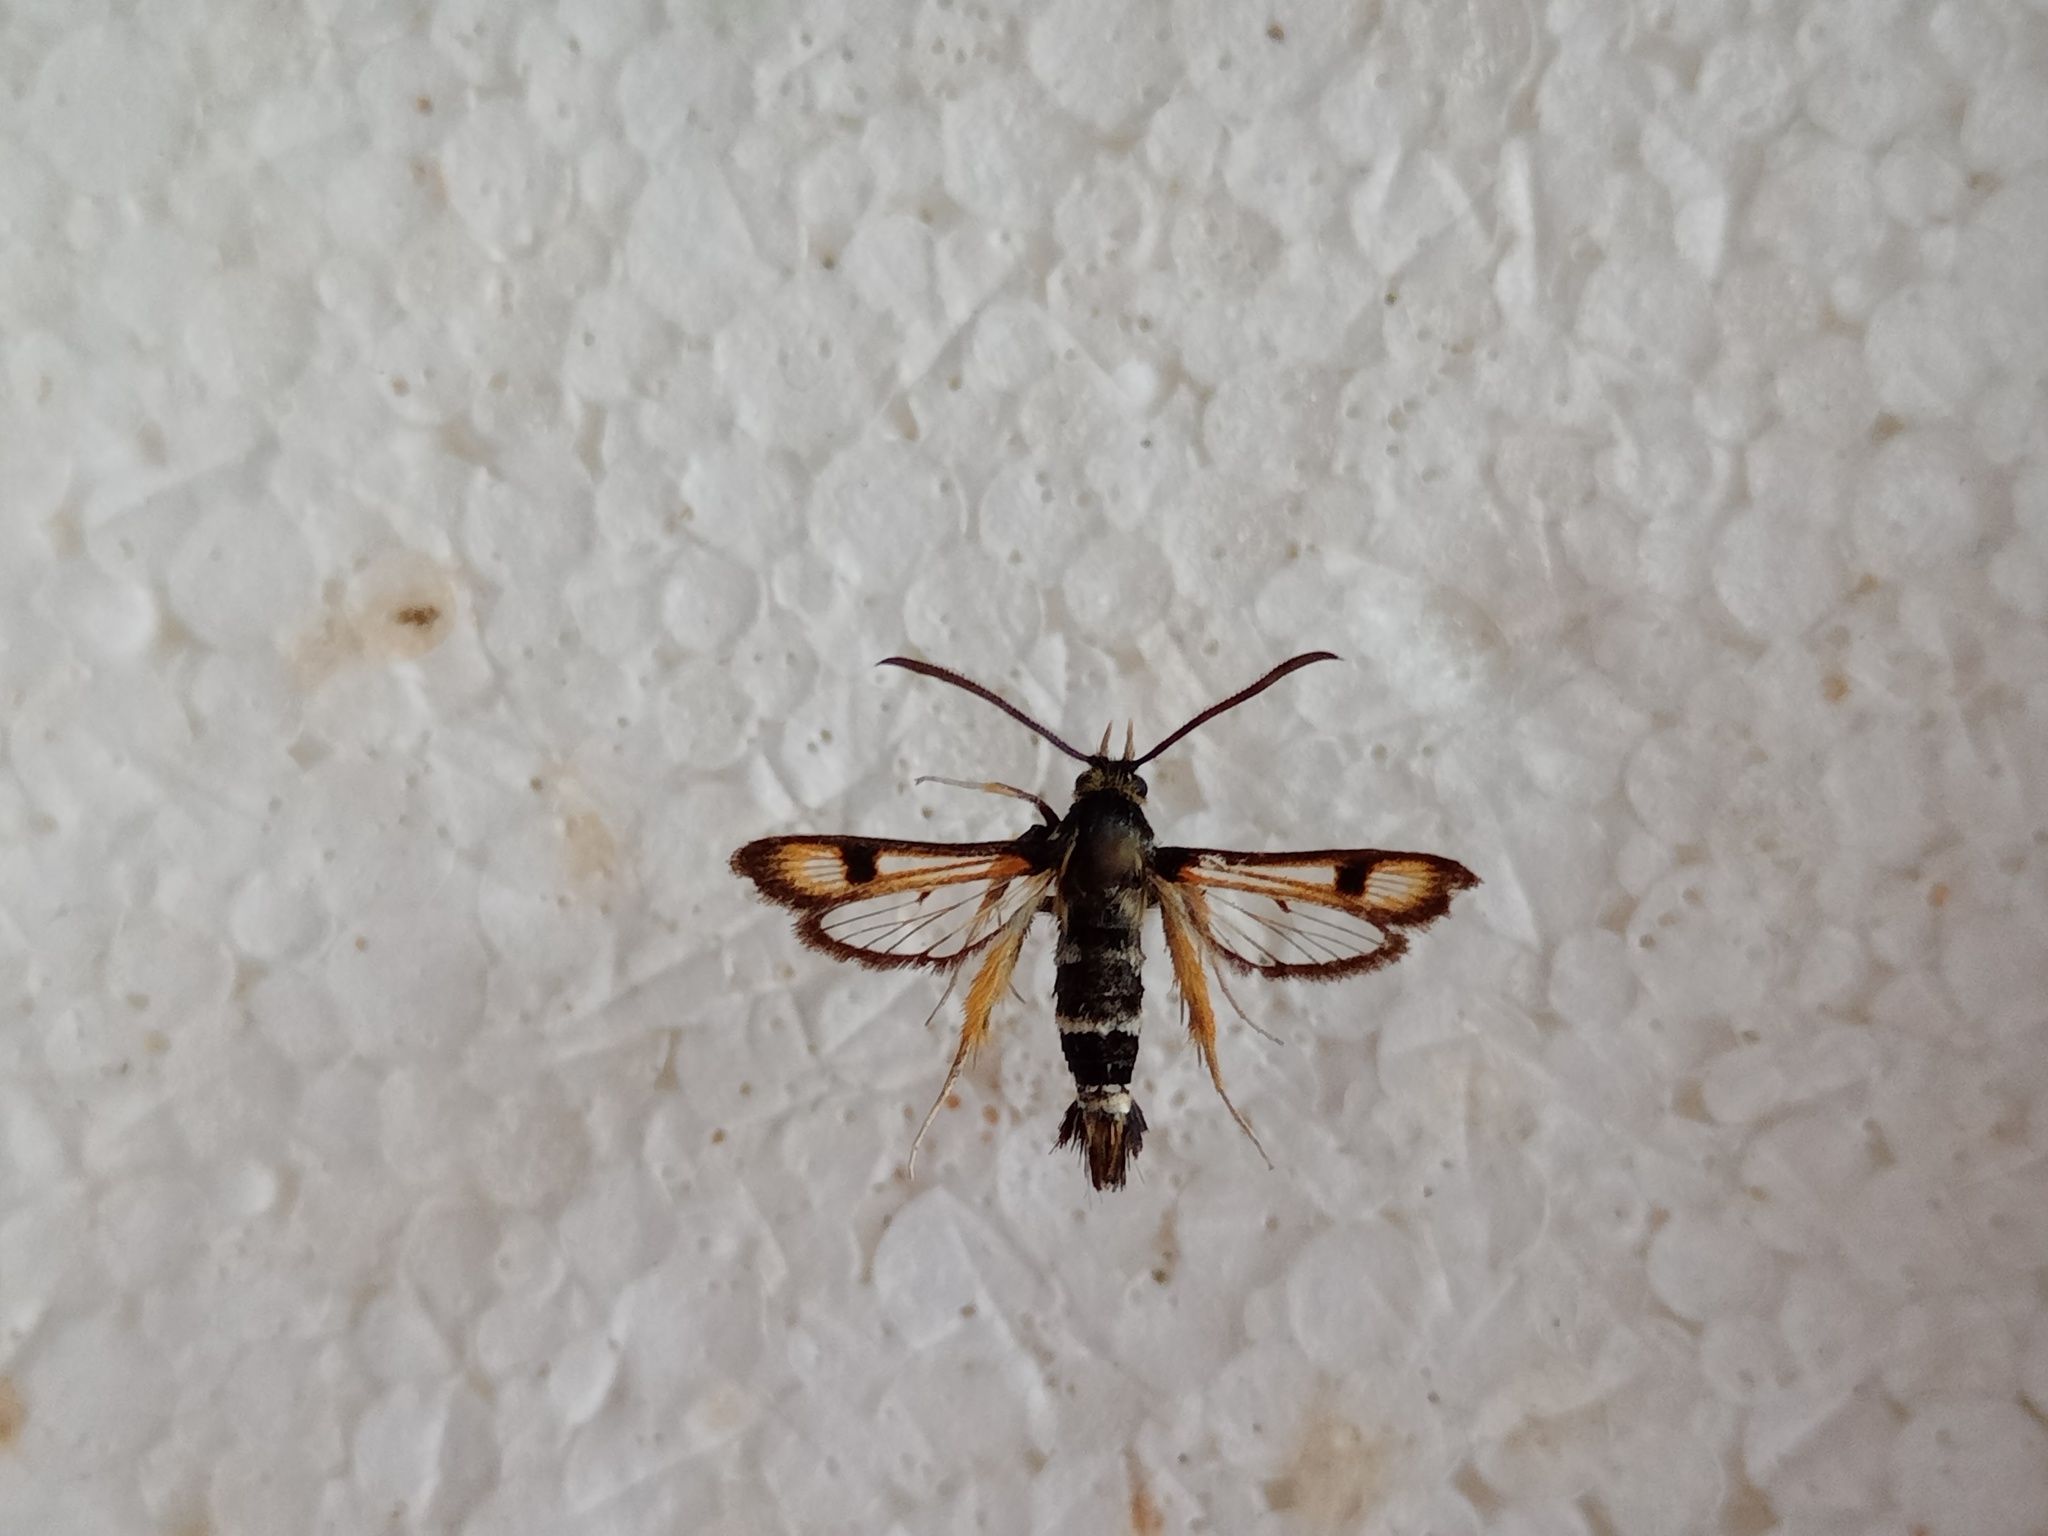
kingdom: Animalia
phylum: Arthropoda
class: Insecta
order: Lepidoptera
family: Sesiidae
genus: Pyropteron
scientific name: Pyropteron minianiformis
